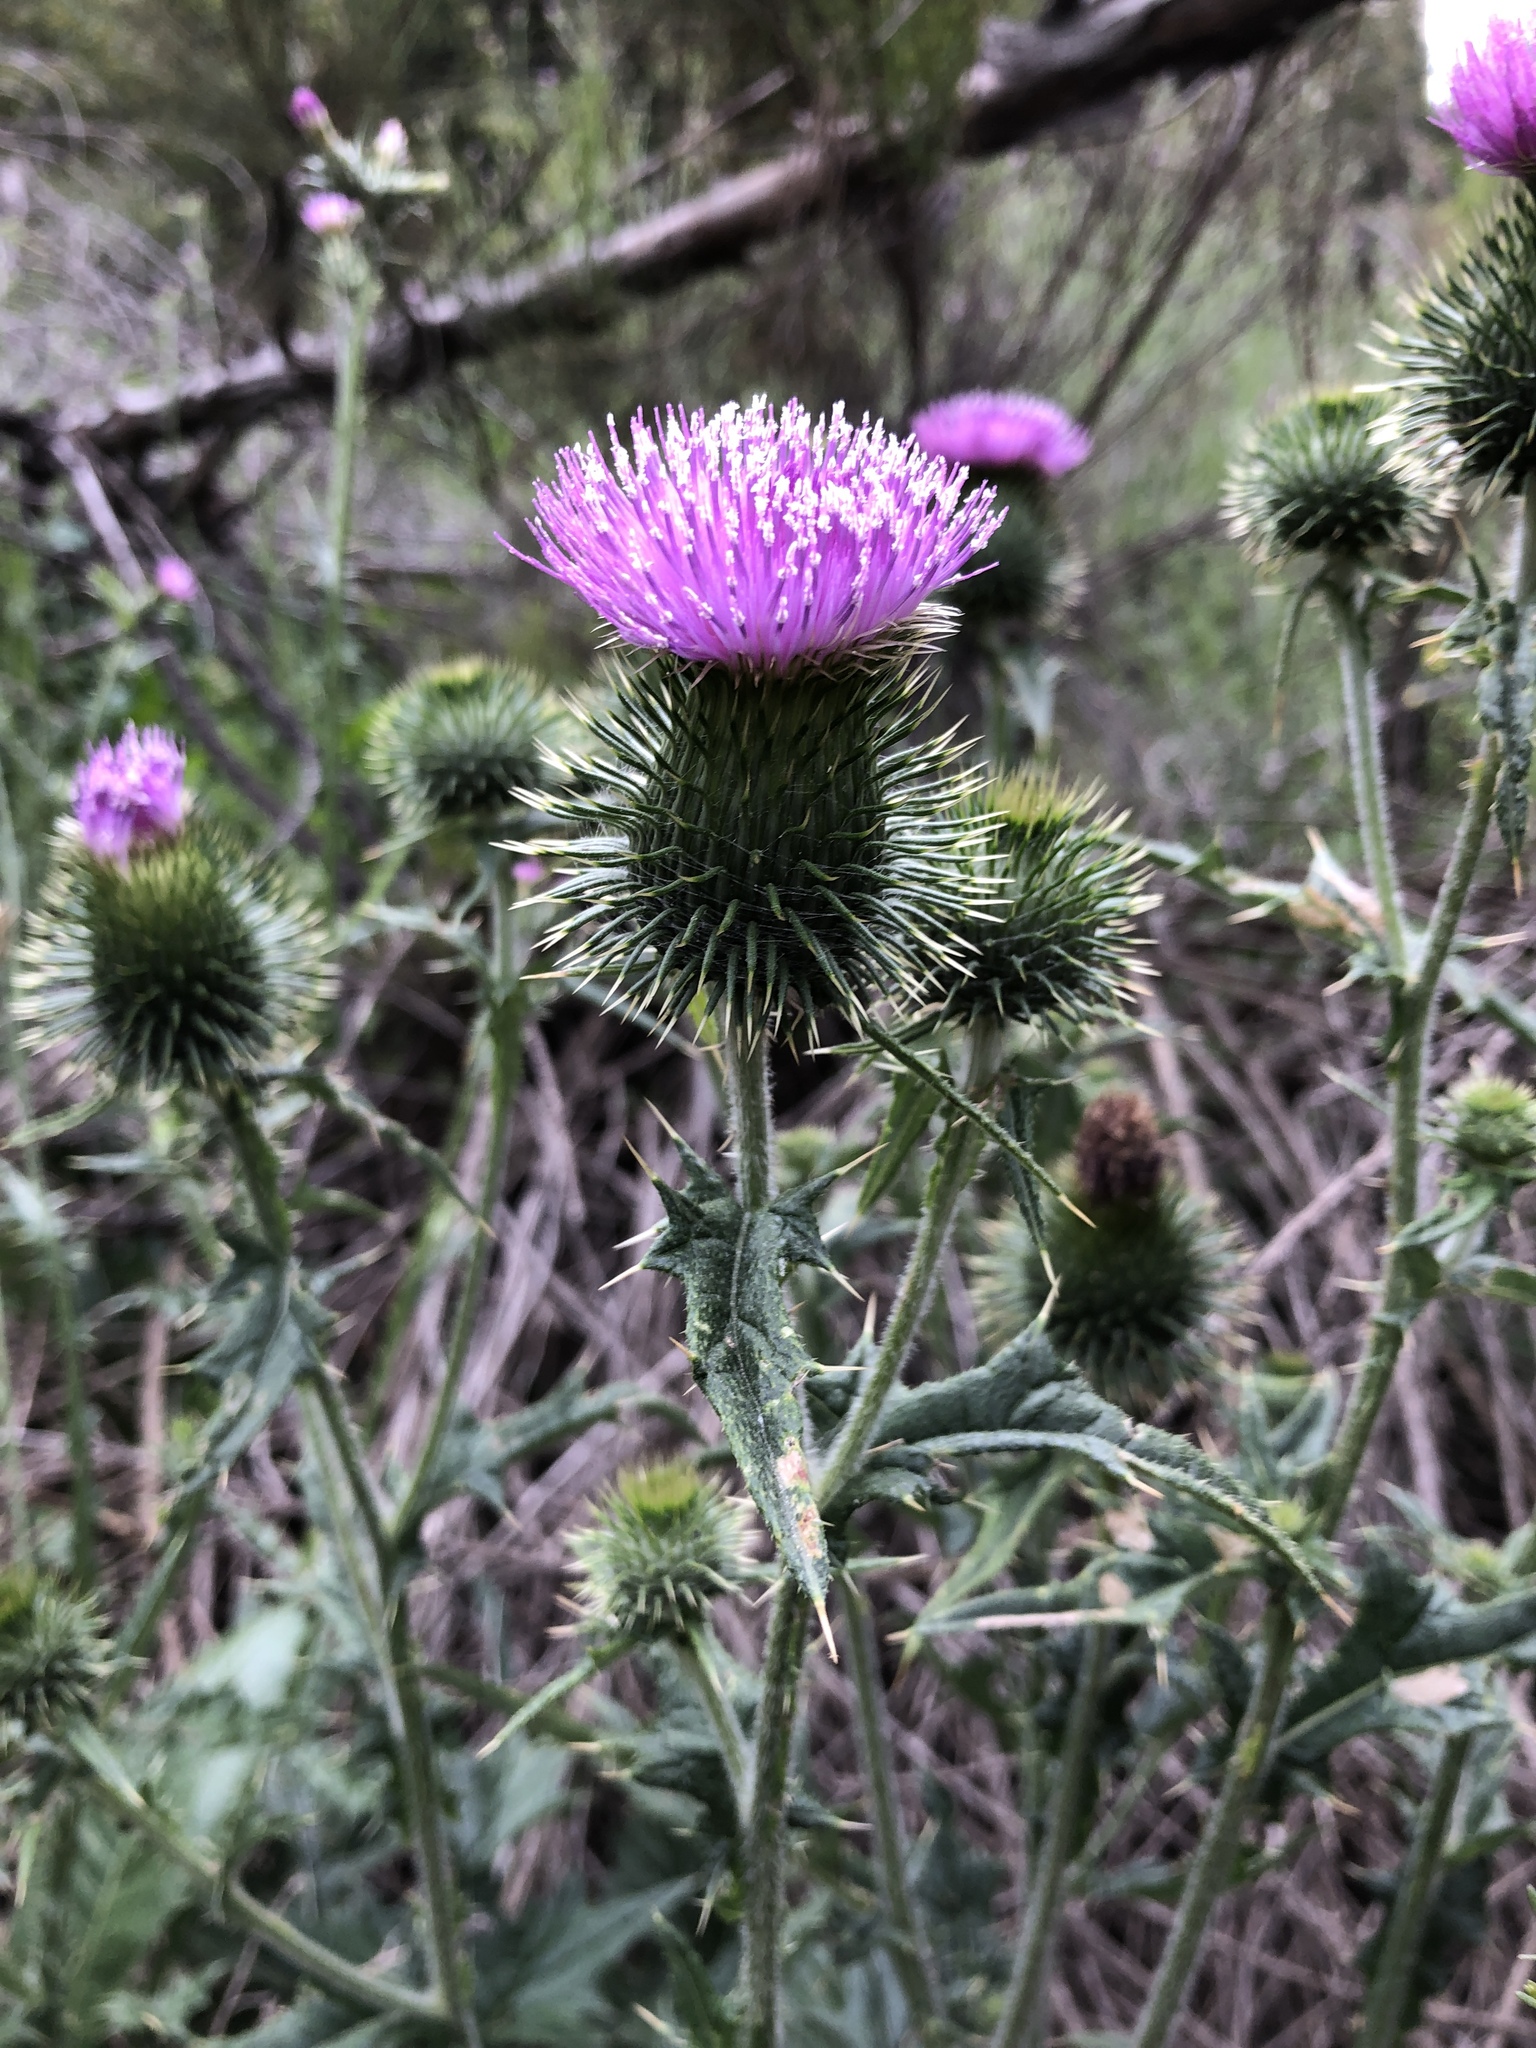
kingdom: Plantae
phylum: Tracheophyta
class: Magnoliopsida
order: Asterales
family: Asteraceae
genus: Cirsium
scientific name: Cirsium vulgare
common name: Bull thistle
